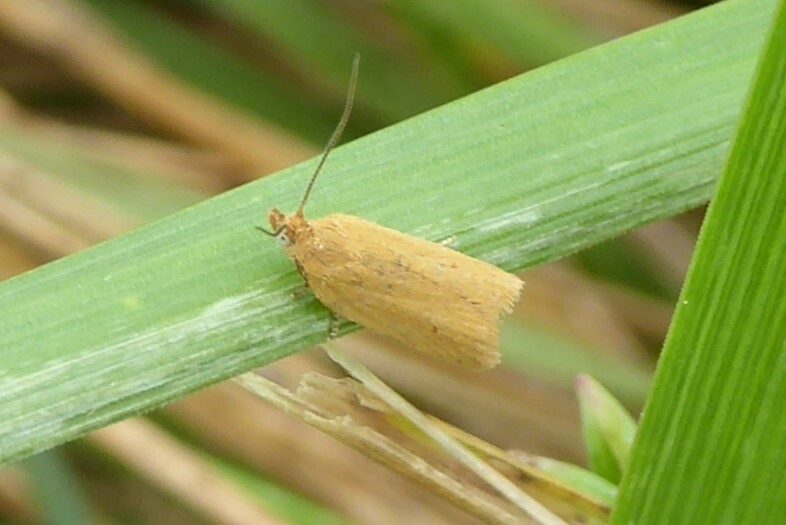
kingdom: Animalia
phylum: Arthropoda
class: Insecta
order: Lepidoptera
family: Tortricidae
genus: Epichorista
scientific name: Epichorista siriana
